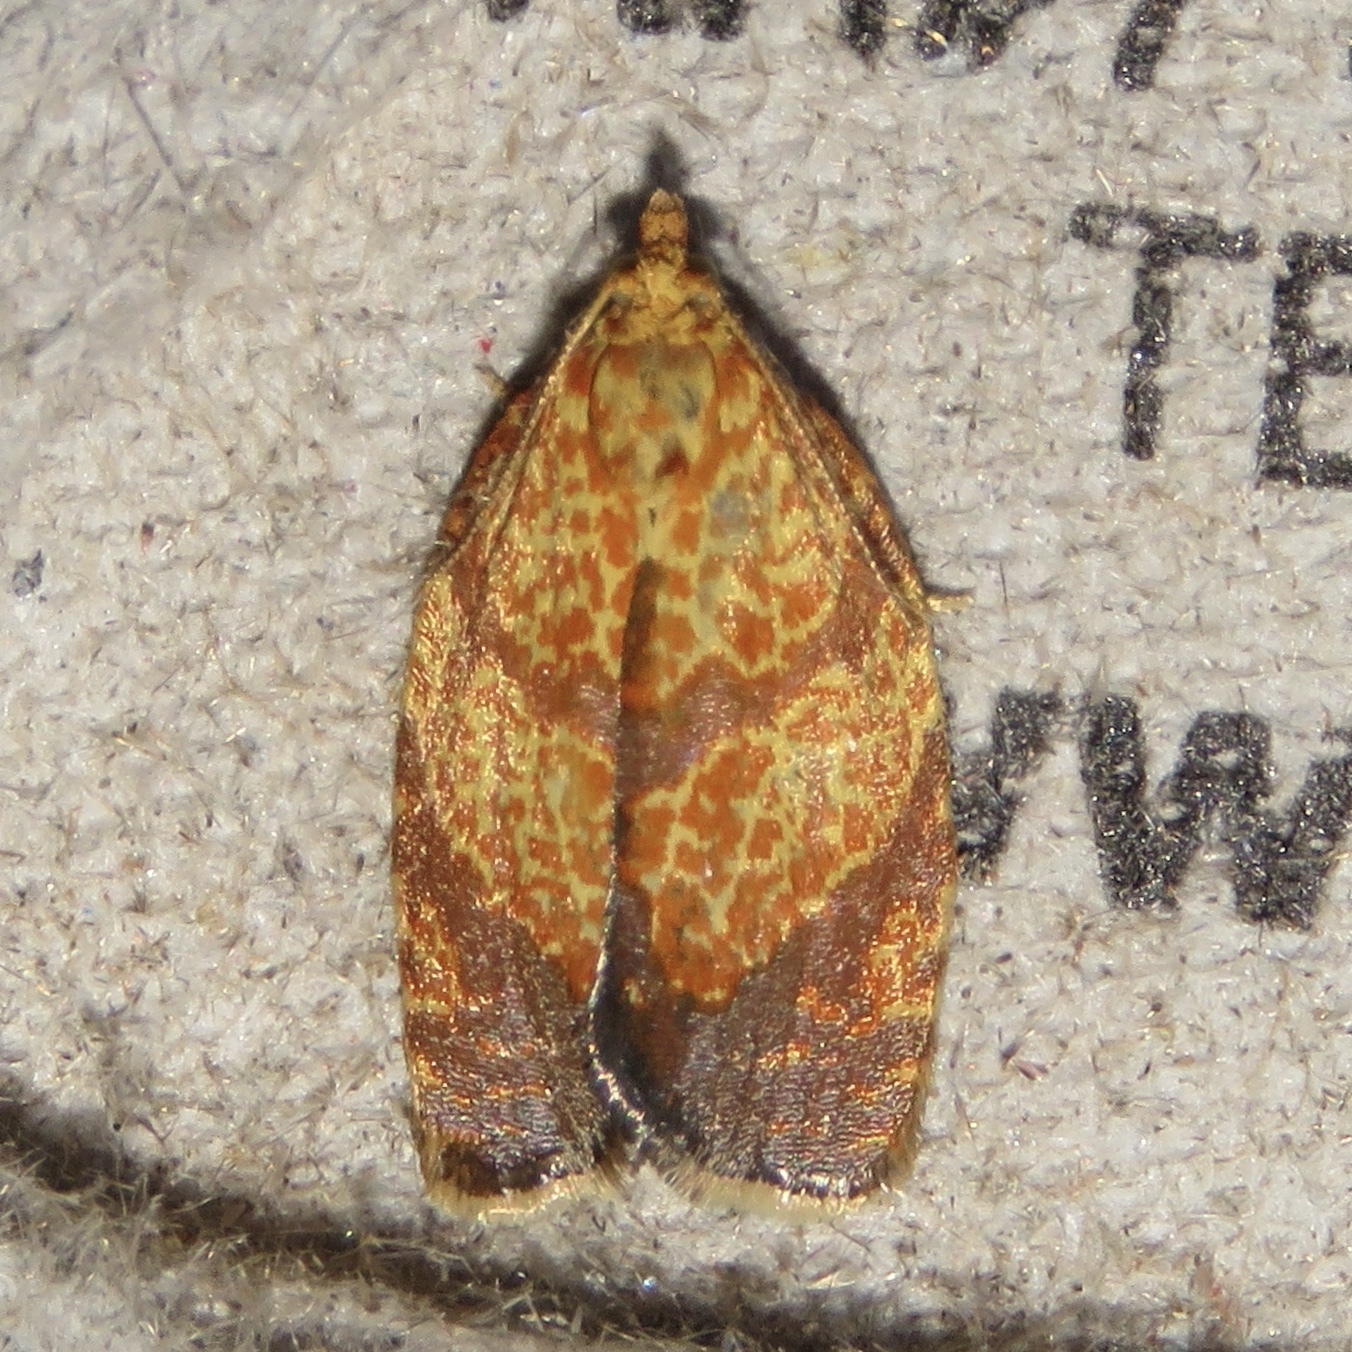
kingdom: Animalia
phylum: Arthropoda
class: Insecta
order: Lepidoptera
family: Tortricidae
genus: Argyrotaenia
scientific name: Argyrotaenia quadrifasciana
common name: Four-lined leafroller moth
